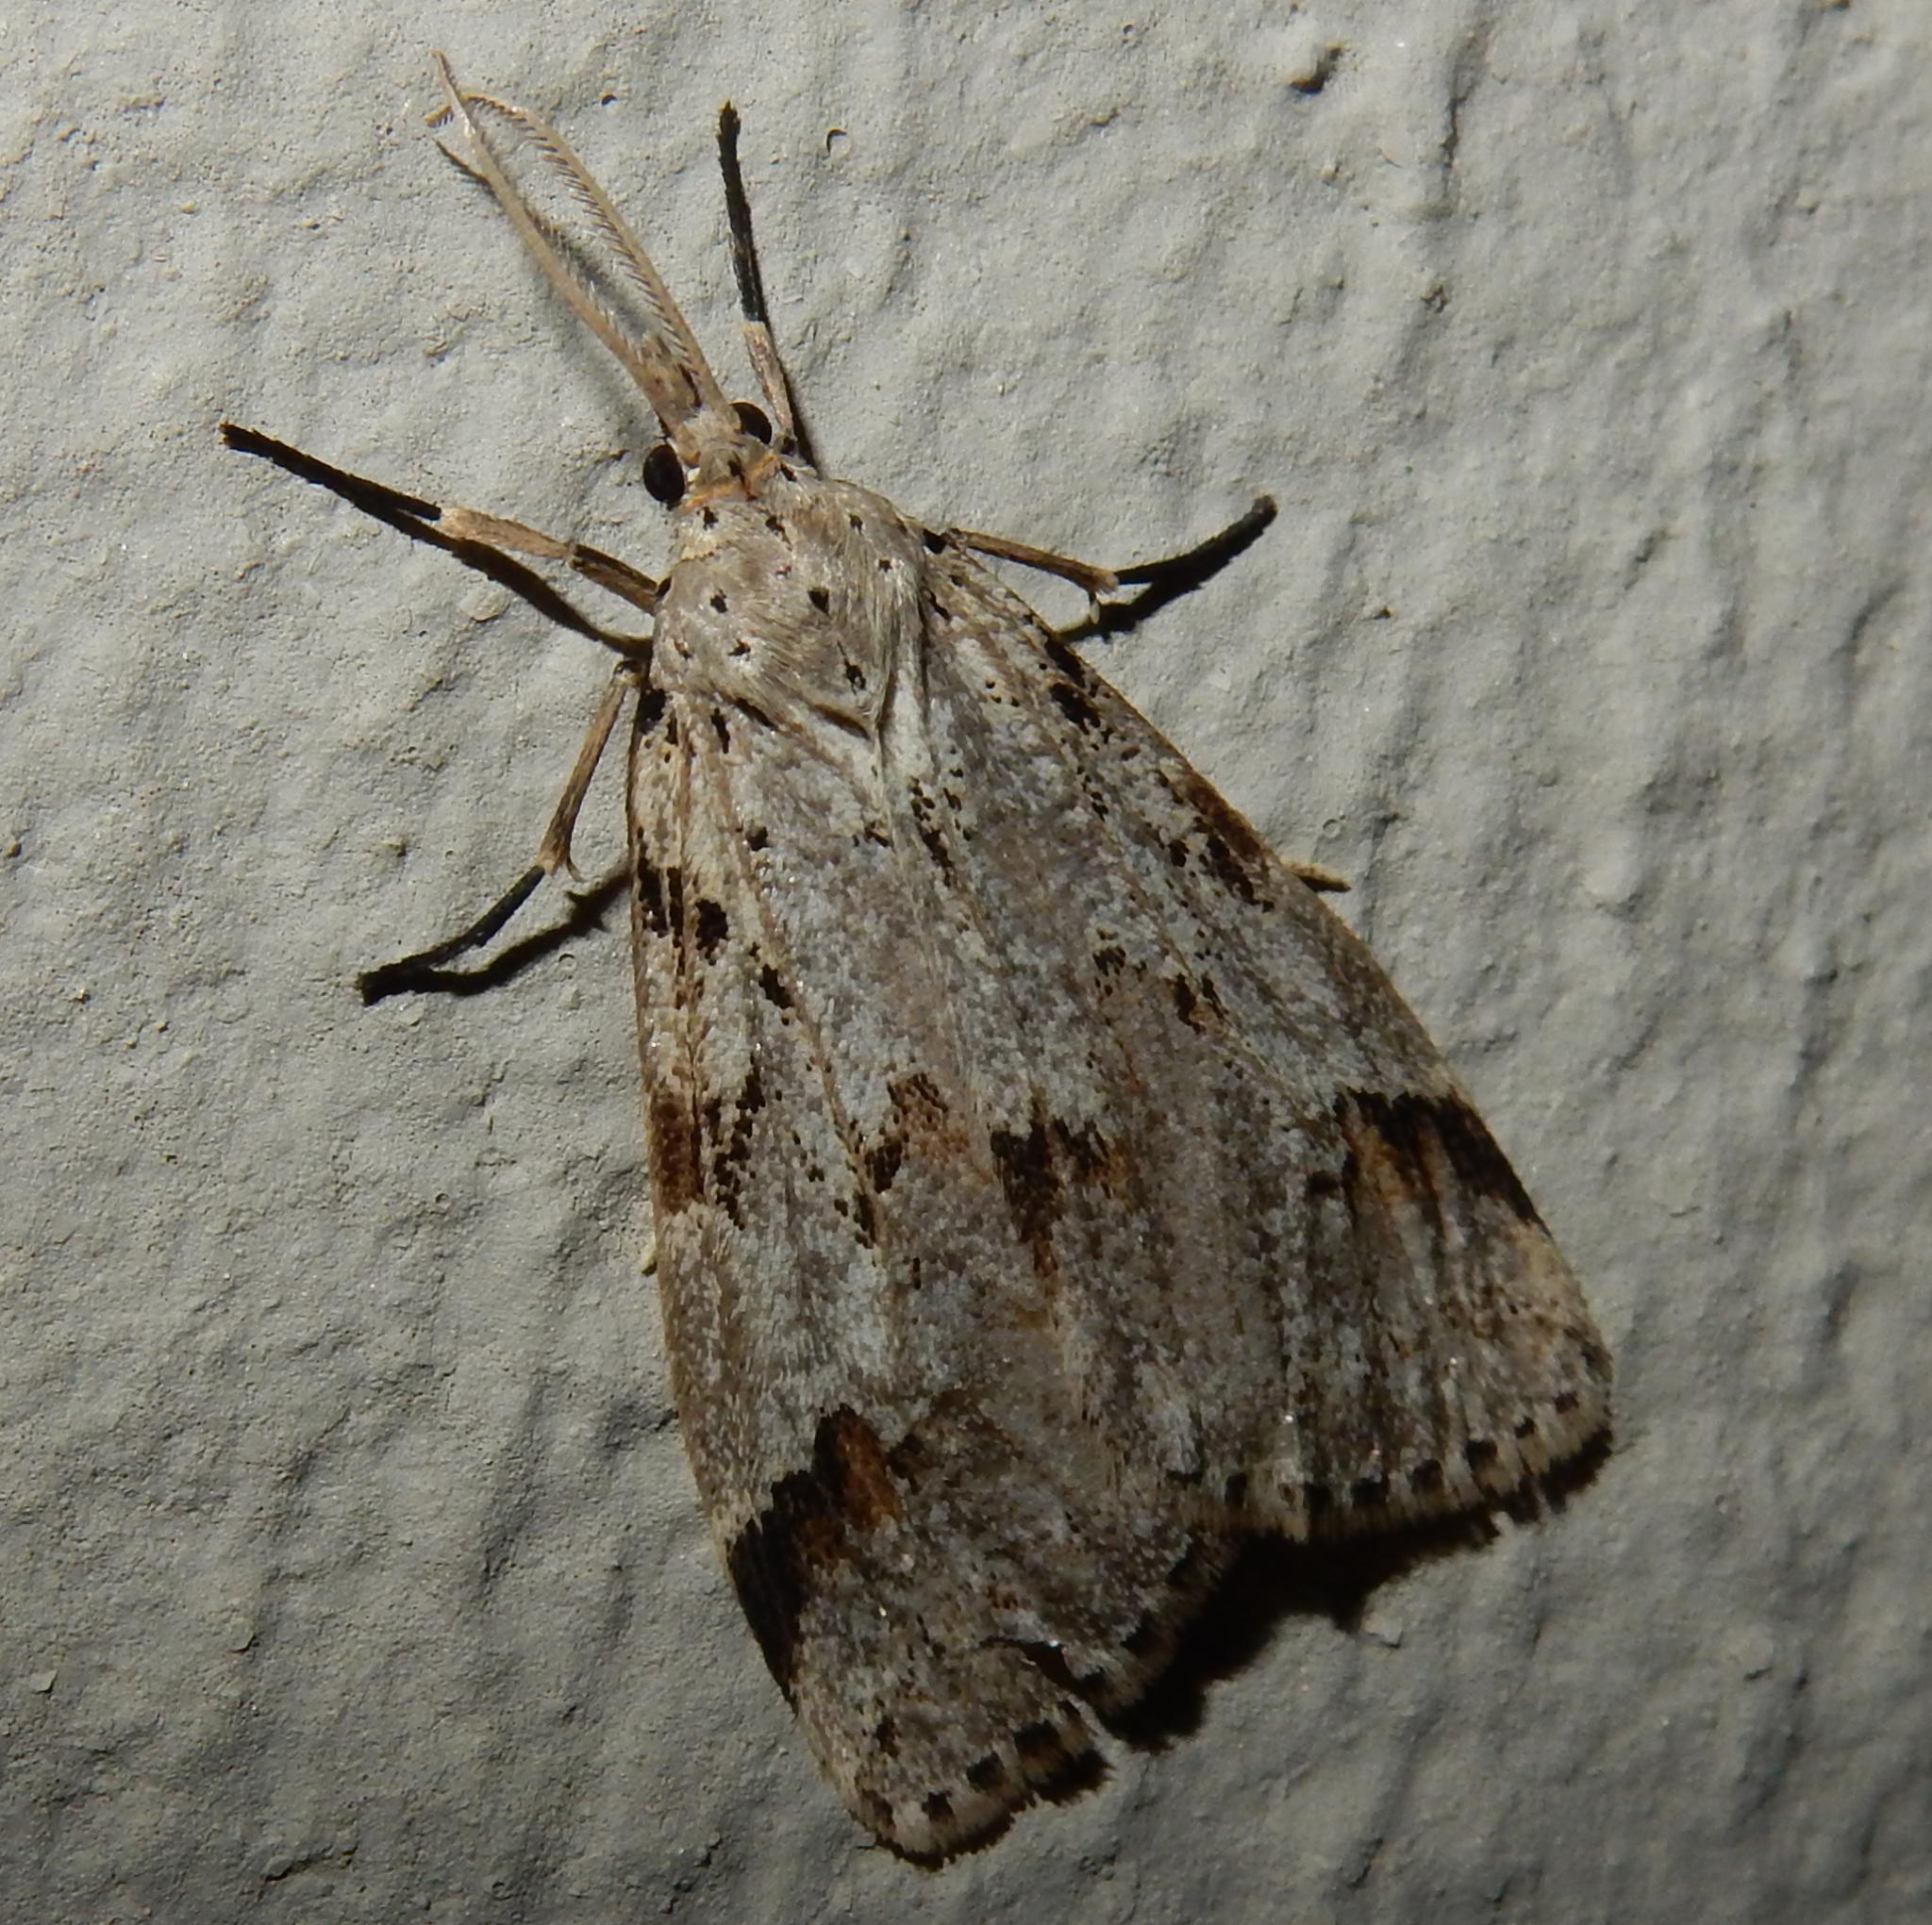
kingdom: Animalia
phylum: Arthropoda
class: Insecta
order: Lepidoptera
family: Erebidae
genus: Galtara
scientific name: Galtara rostrata
